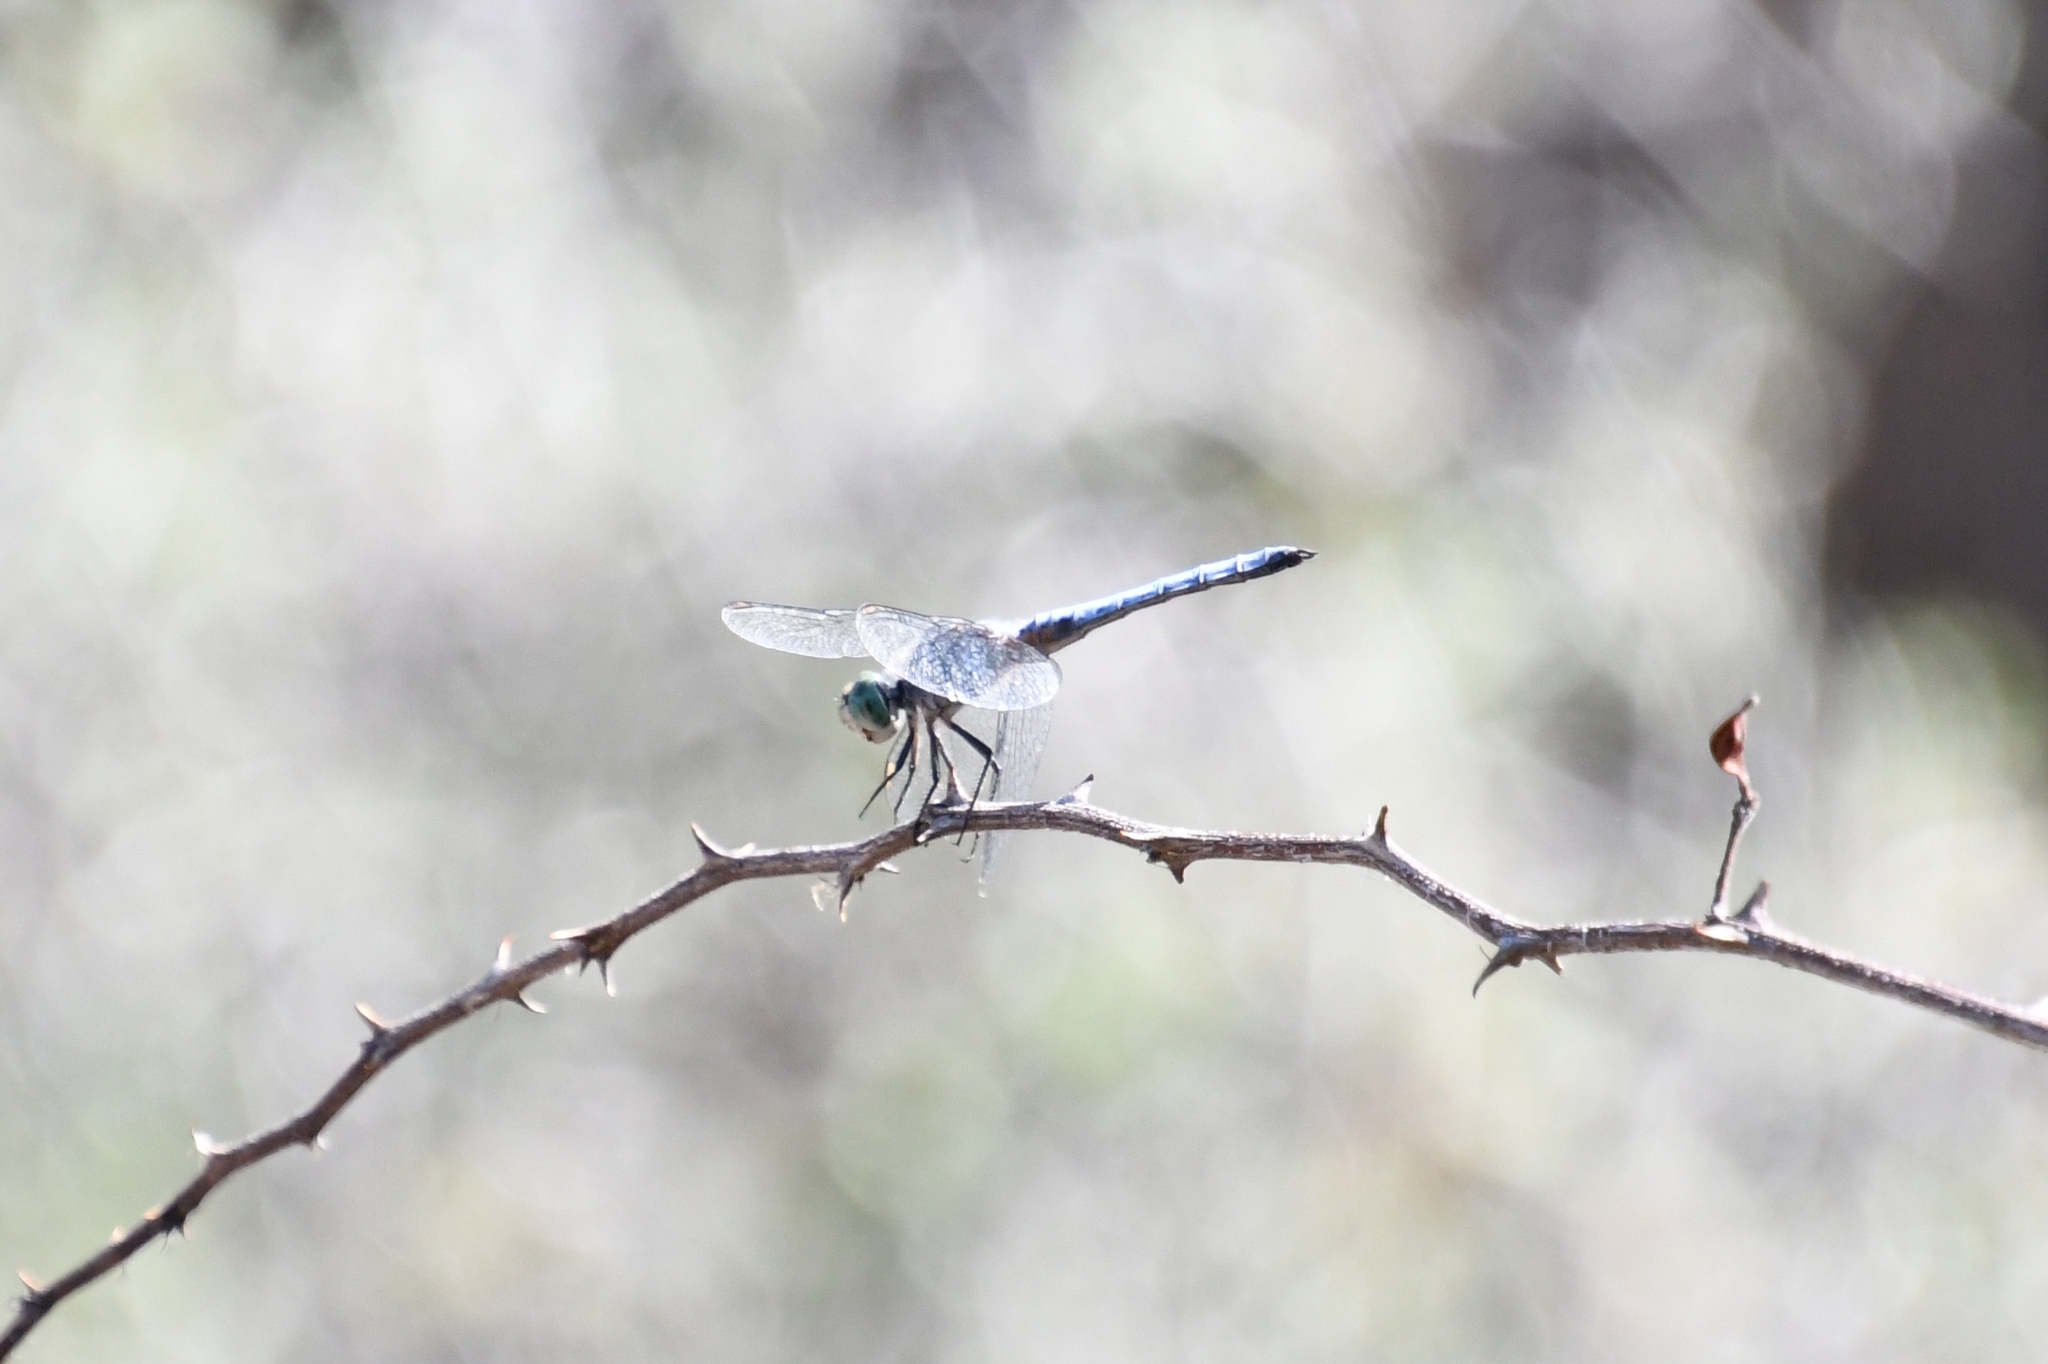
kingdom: Animalia
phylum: Arthropoda
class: Insecta
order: Odonata
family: Libellulidae
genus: Pachydiplax
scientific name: Pachydiplax longipennis
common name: Blue dasher
